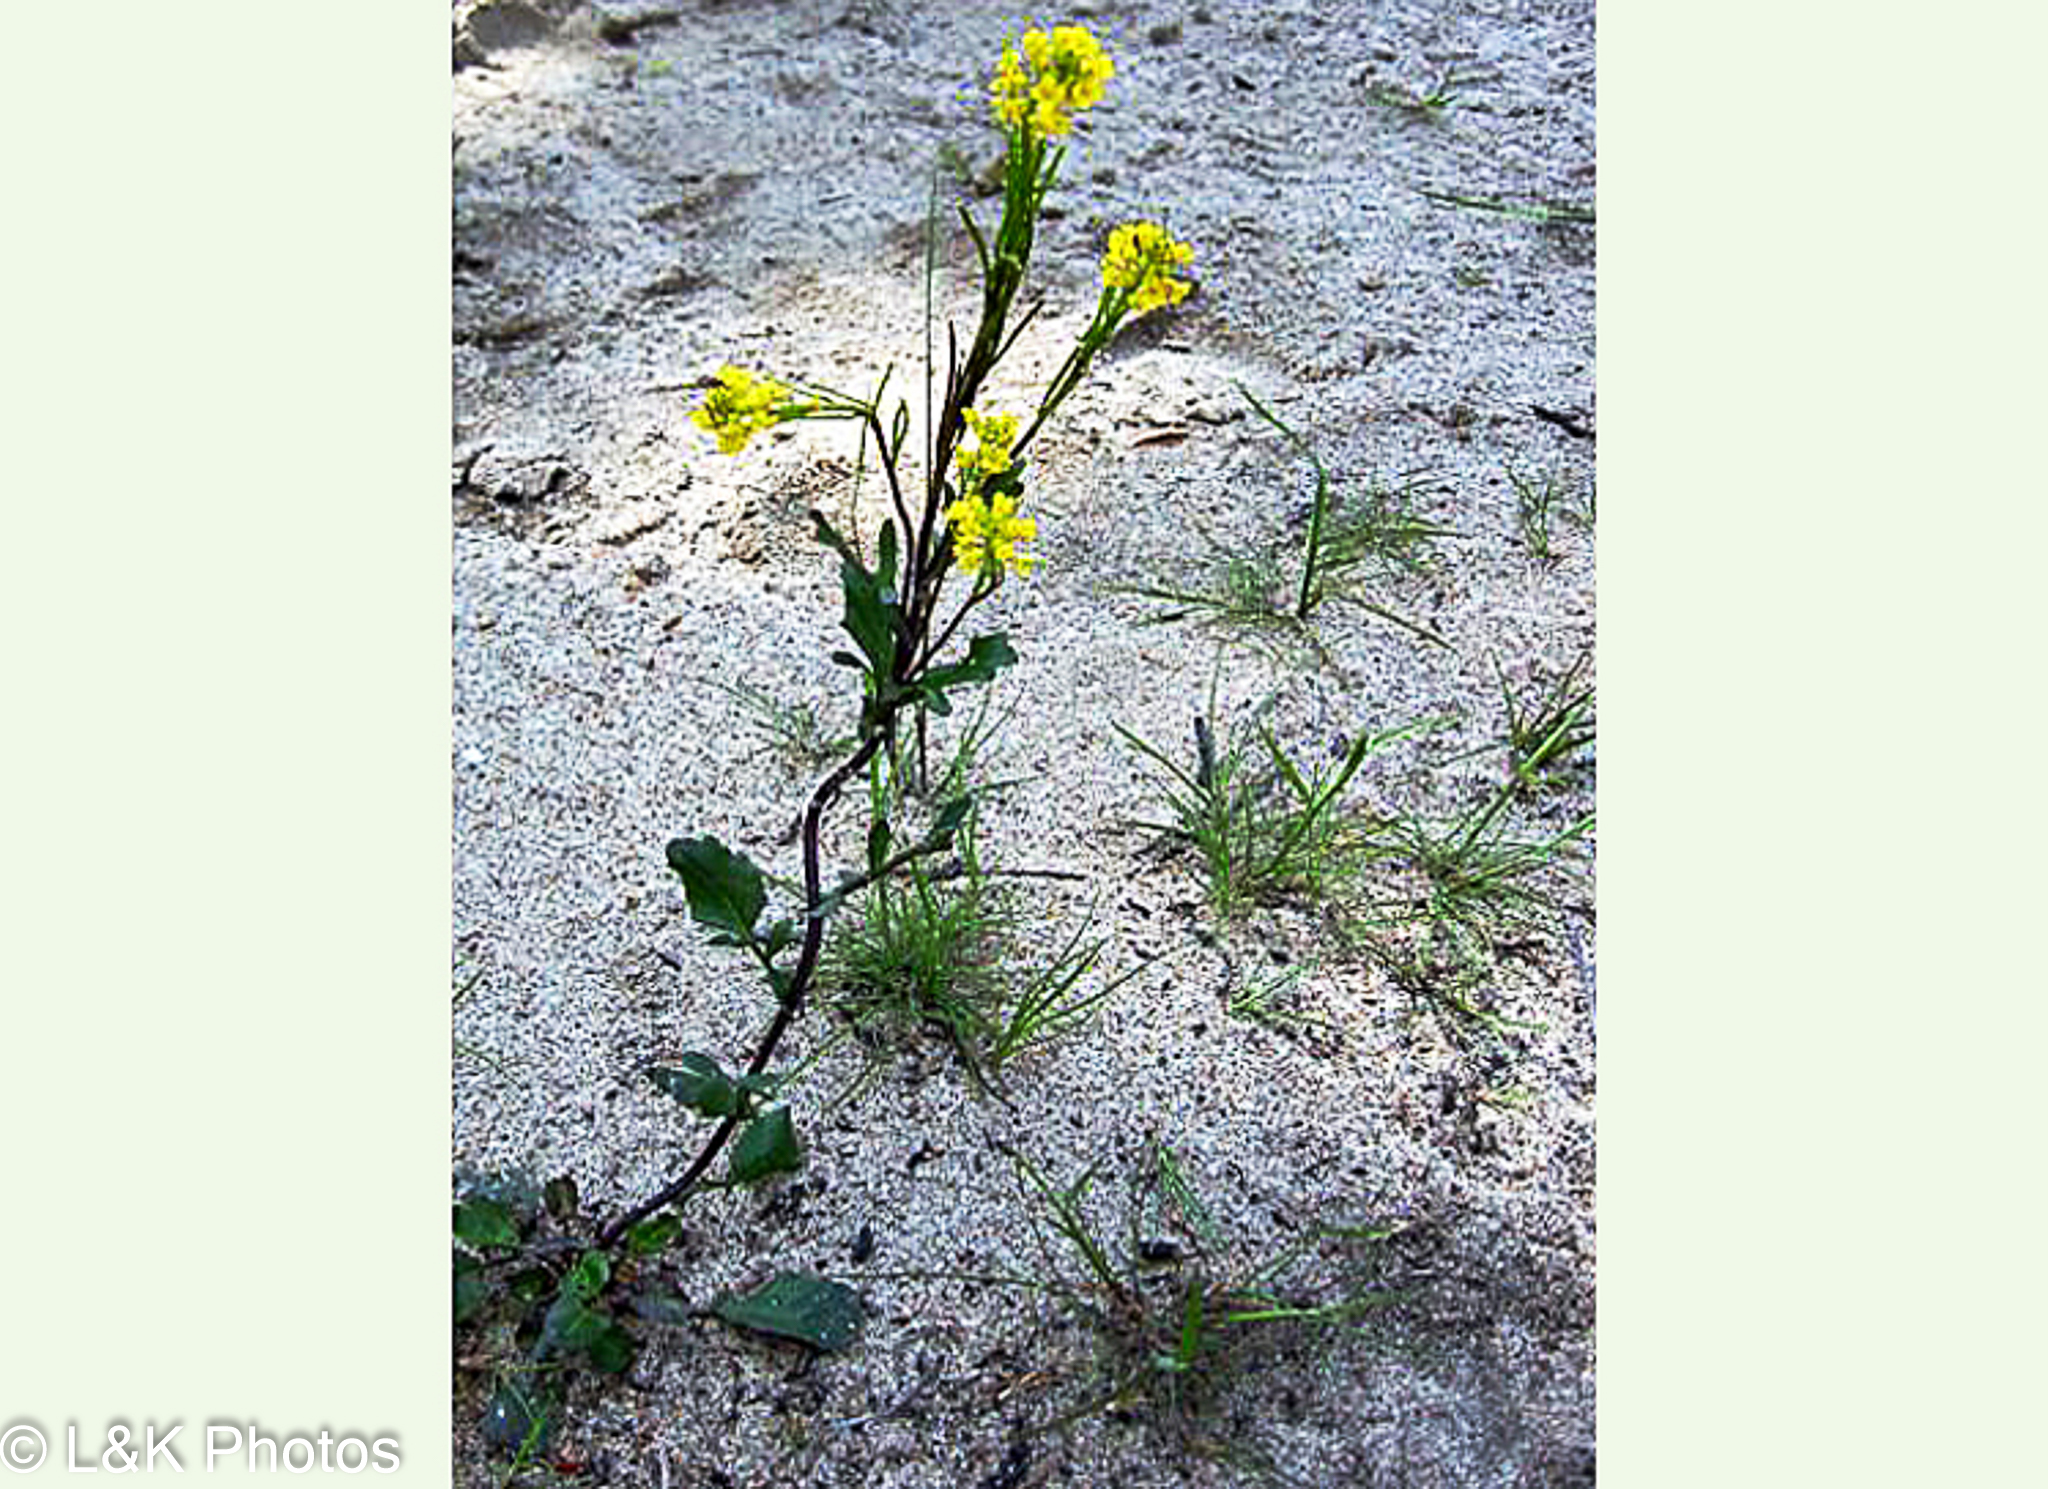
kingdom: Plantae
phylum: Tracheophyta
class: Magnoliopsida
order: Brassicales
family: Brassicaceae
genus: Barbarea
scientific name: Barbarea orthoceras
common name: American wintercress
